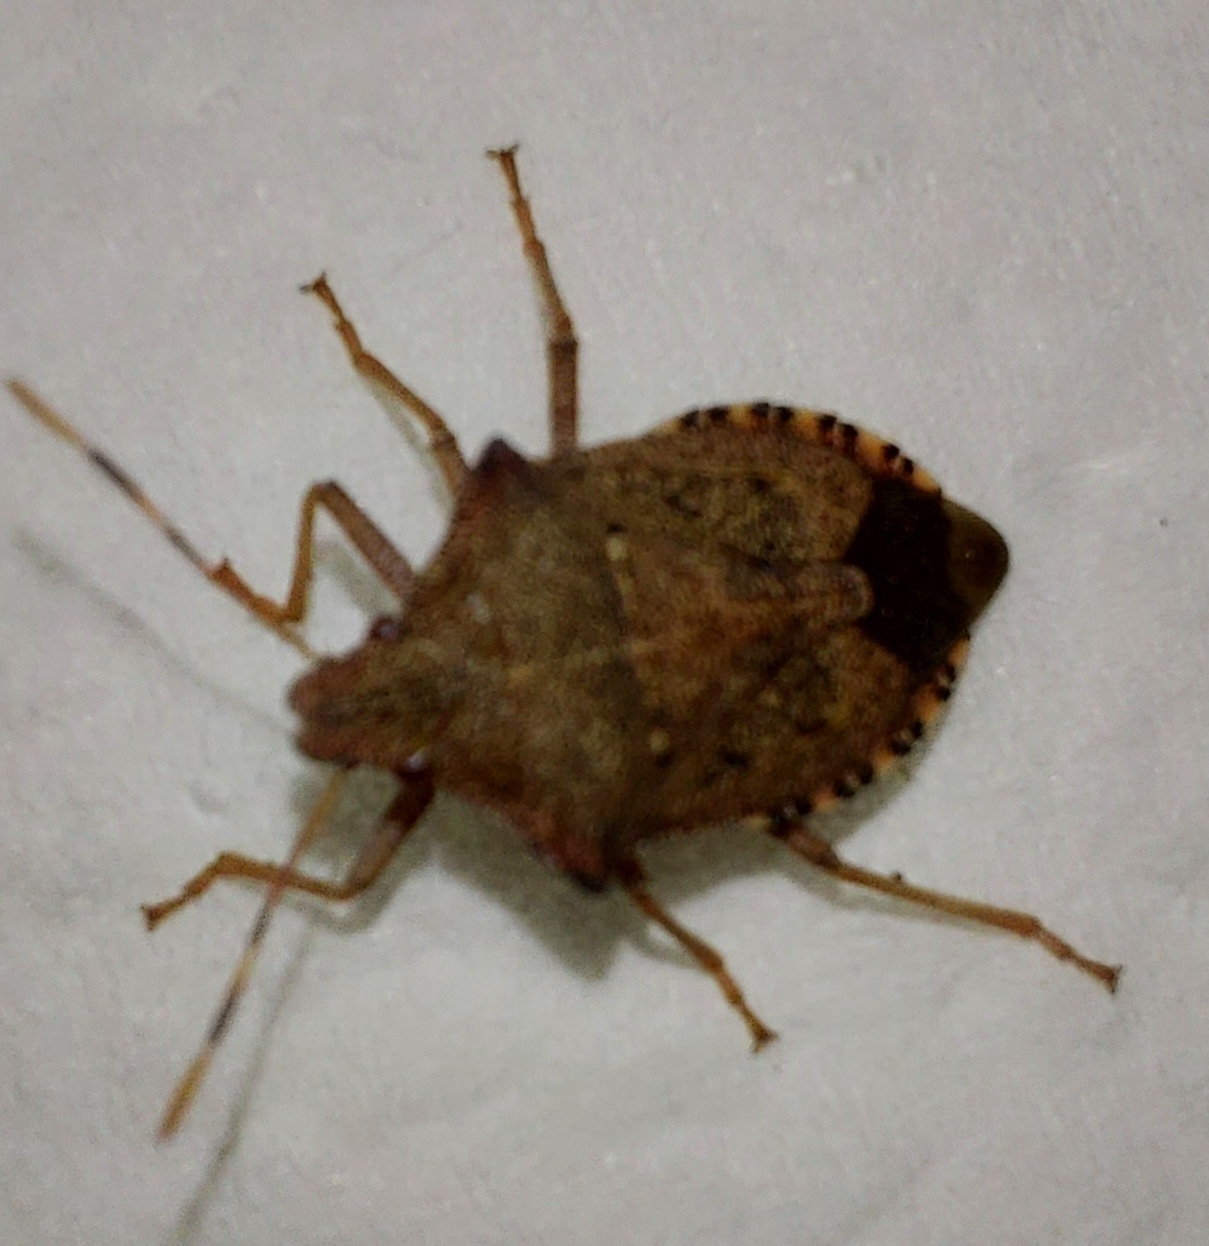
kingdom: Animalia
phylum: Arthropoda
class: Insecta
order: Hemiptera
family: Pentatomidae
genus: Arma
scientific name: Arma custos
